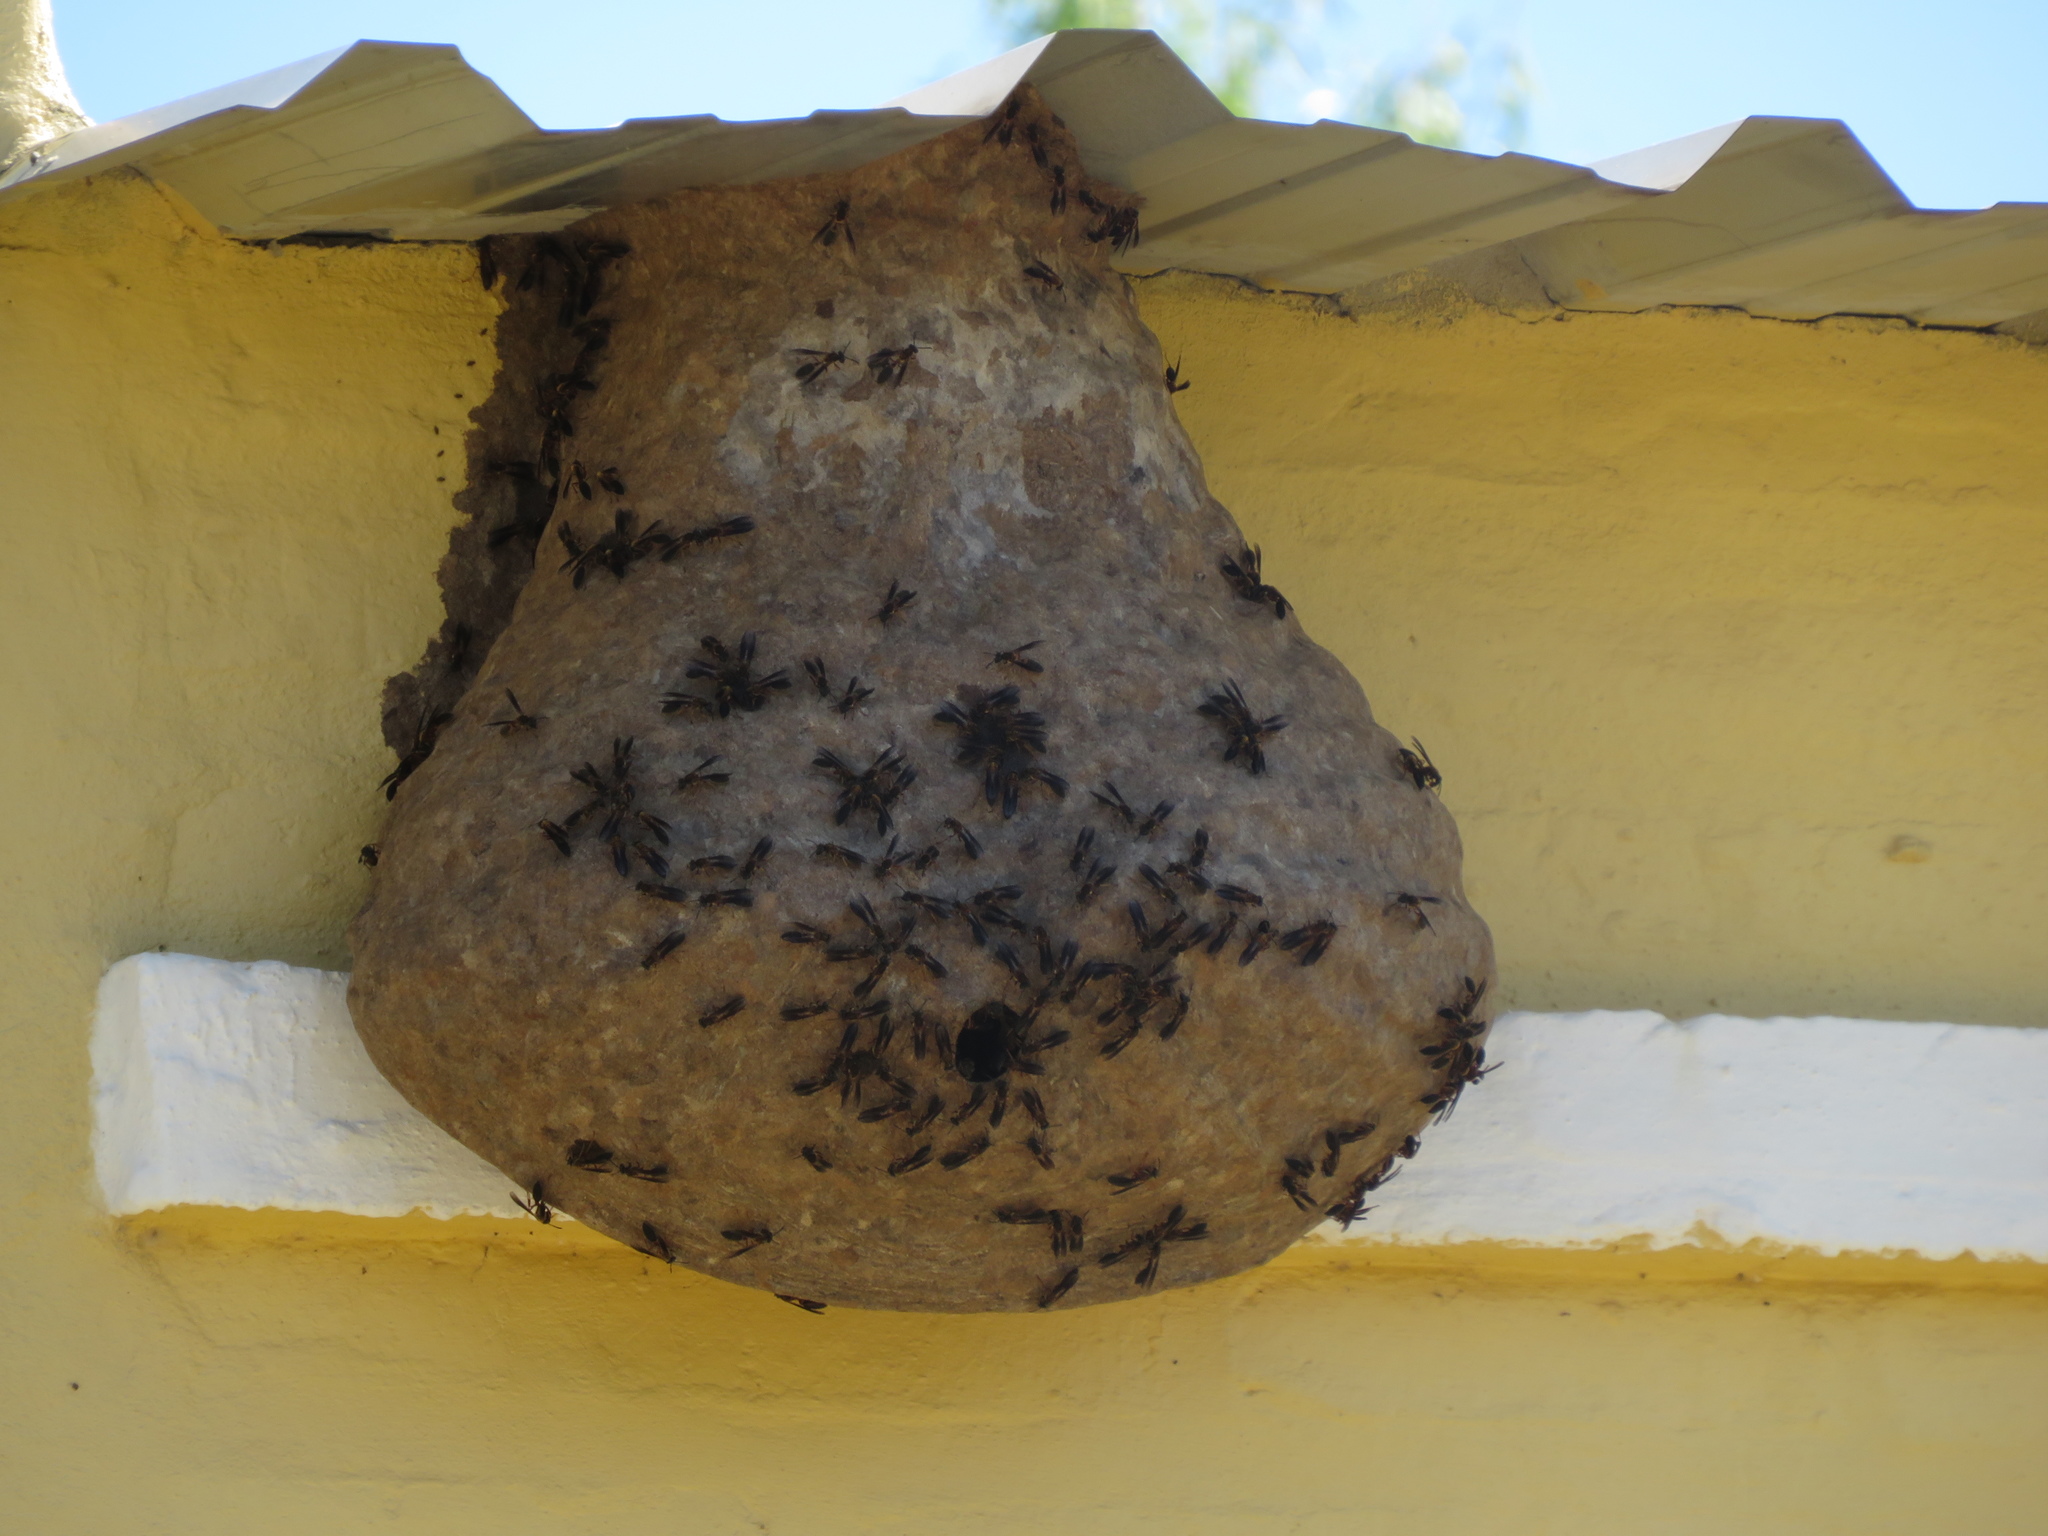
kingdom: Animalia
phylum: Arthropoda
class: Insecta
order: Hymenoptera
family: Eumenidae
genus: Polybia
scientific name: Polybia sericea
